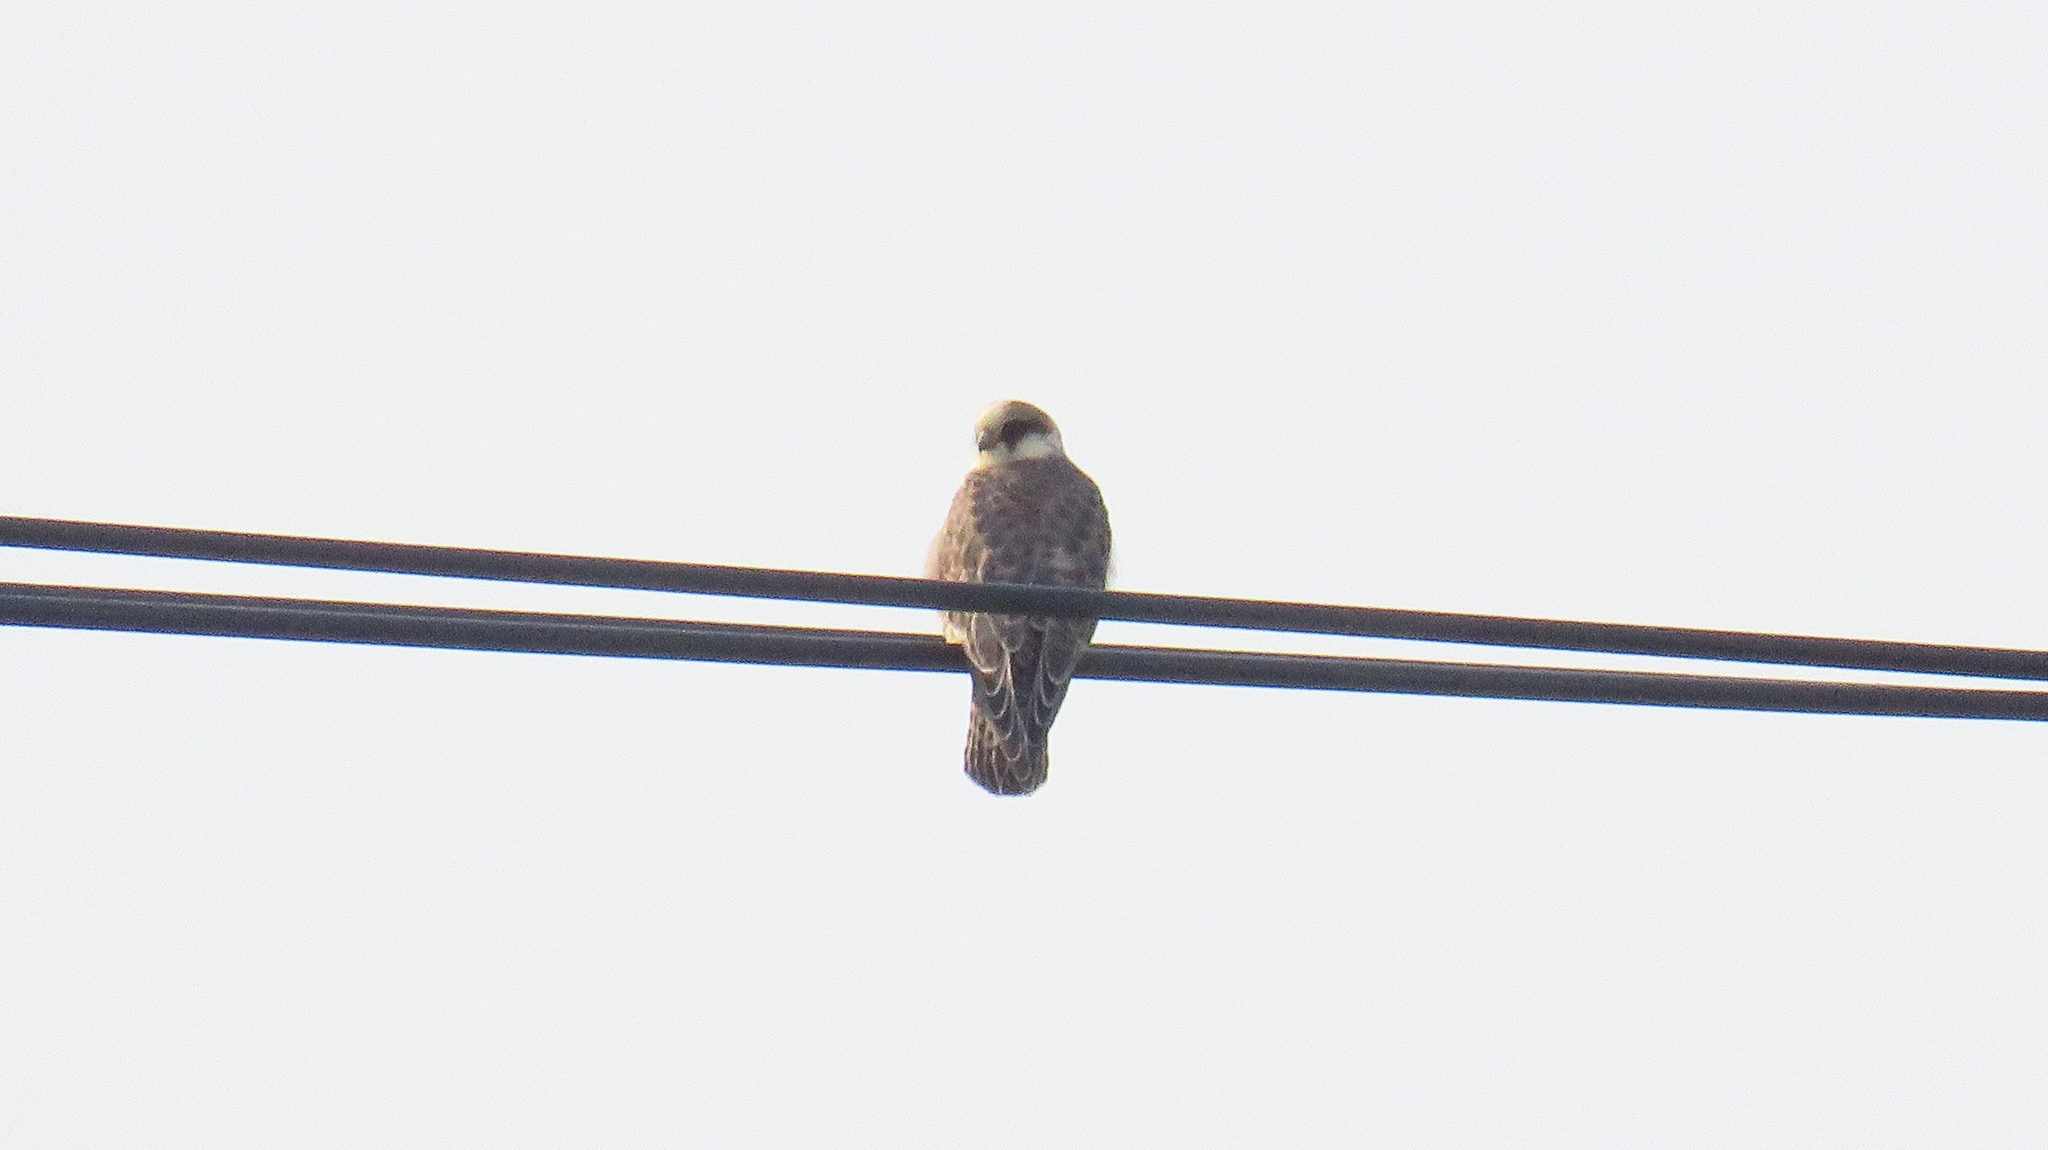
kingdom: Animalia
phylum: Chordata
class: Aves
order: Falconiformes
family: Falconidae
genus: Falco
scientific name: Falco vespertinus
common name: Red-footed falcon
